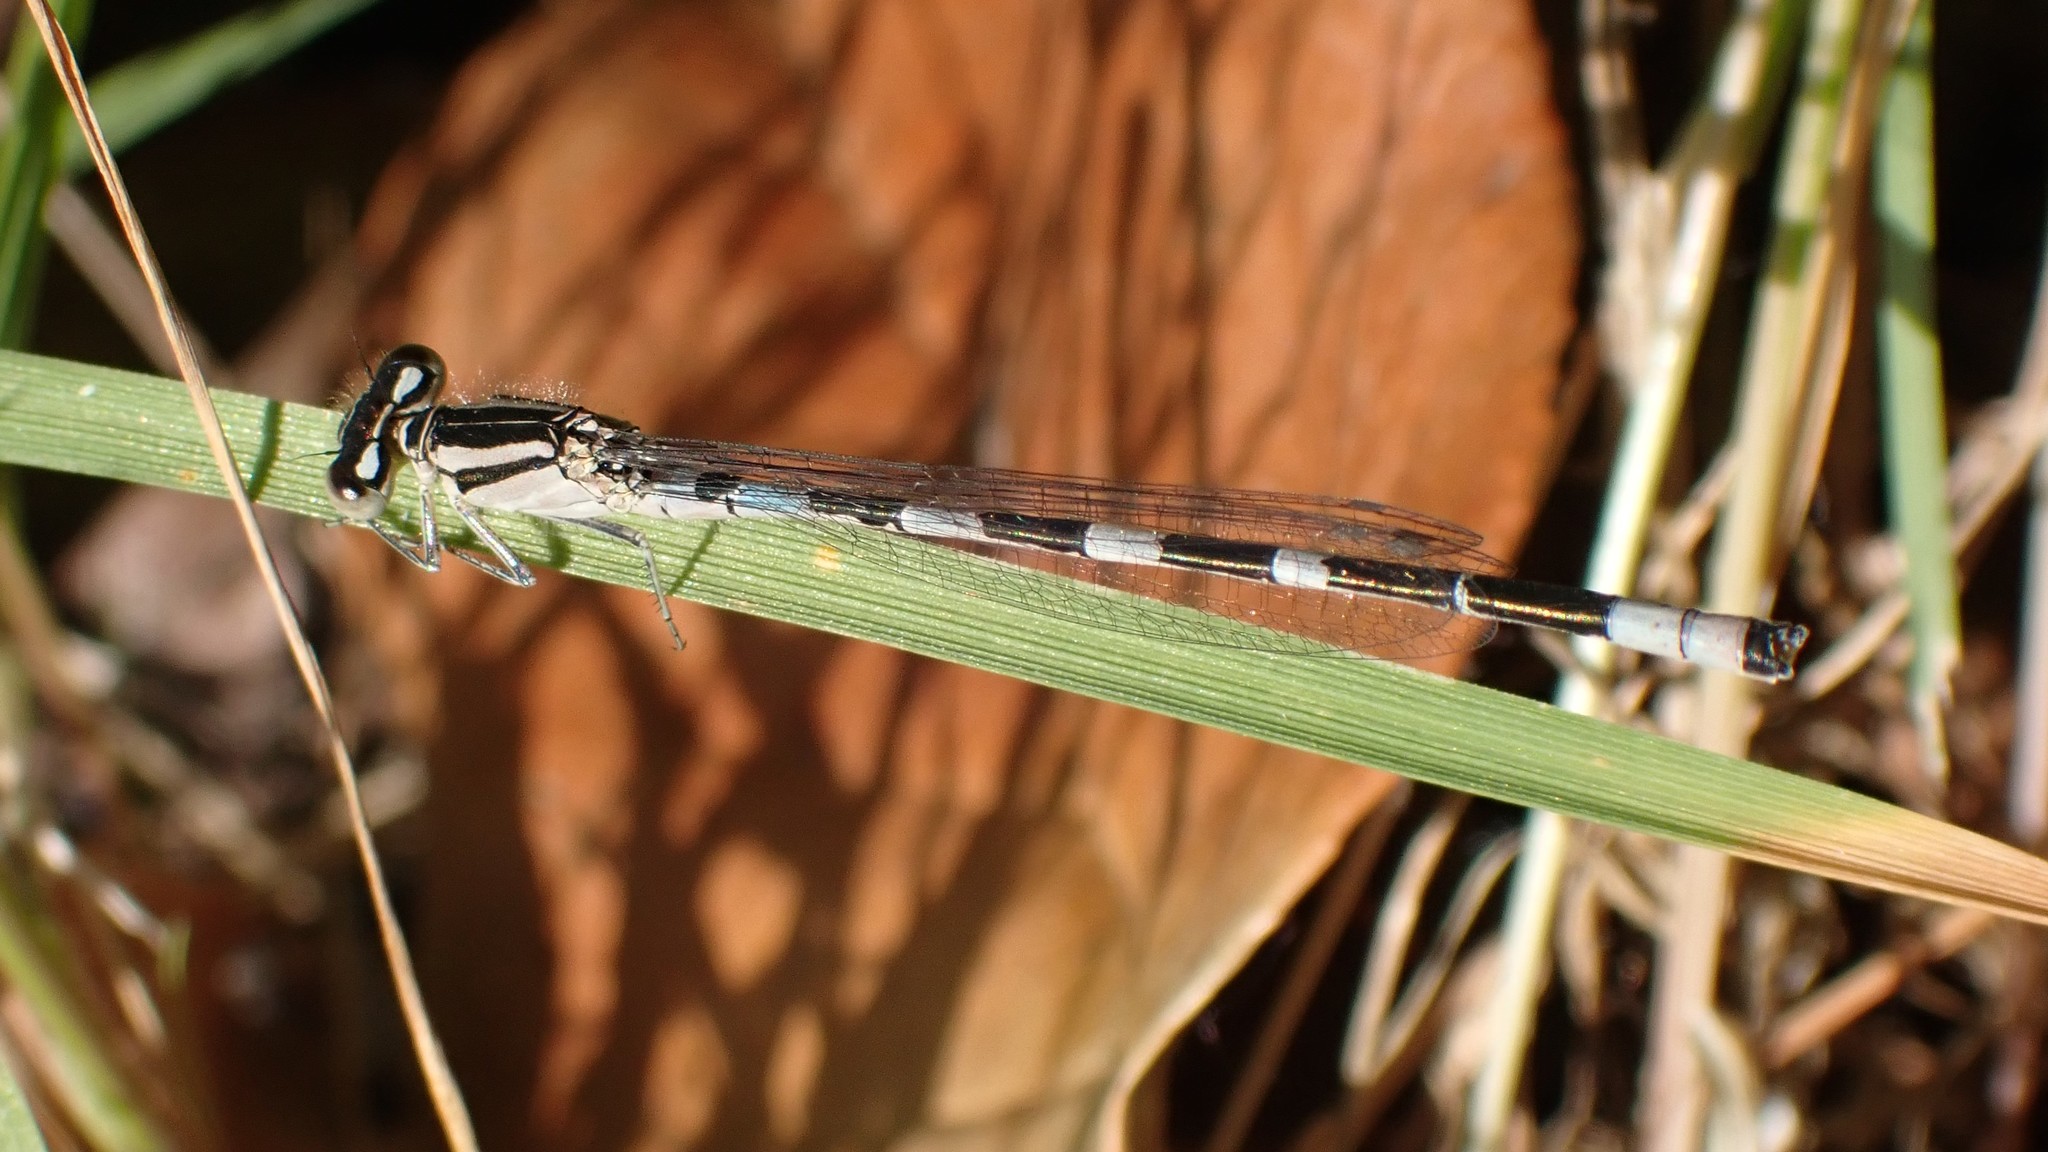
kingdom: Animalia
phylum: Arthropoda
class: Insecta
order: Odonata
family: Coenagrionidae
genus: Enallagma
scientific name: Enallagma carunculatum
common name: Tule bluet
